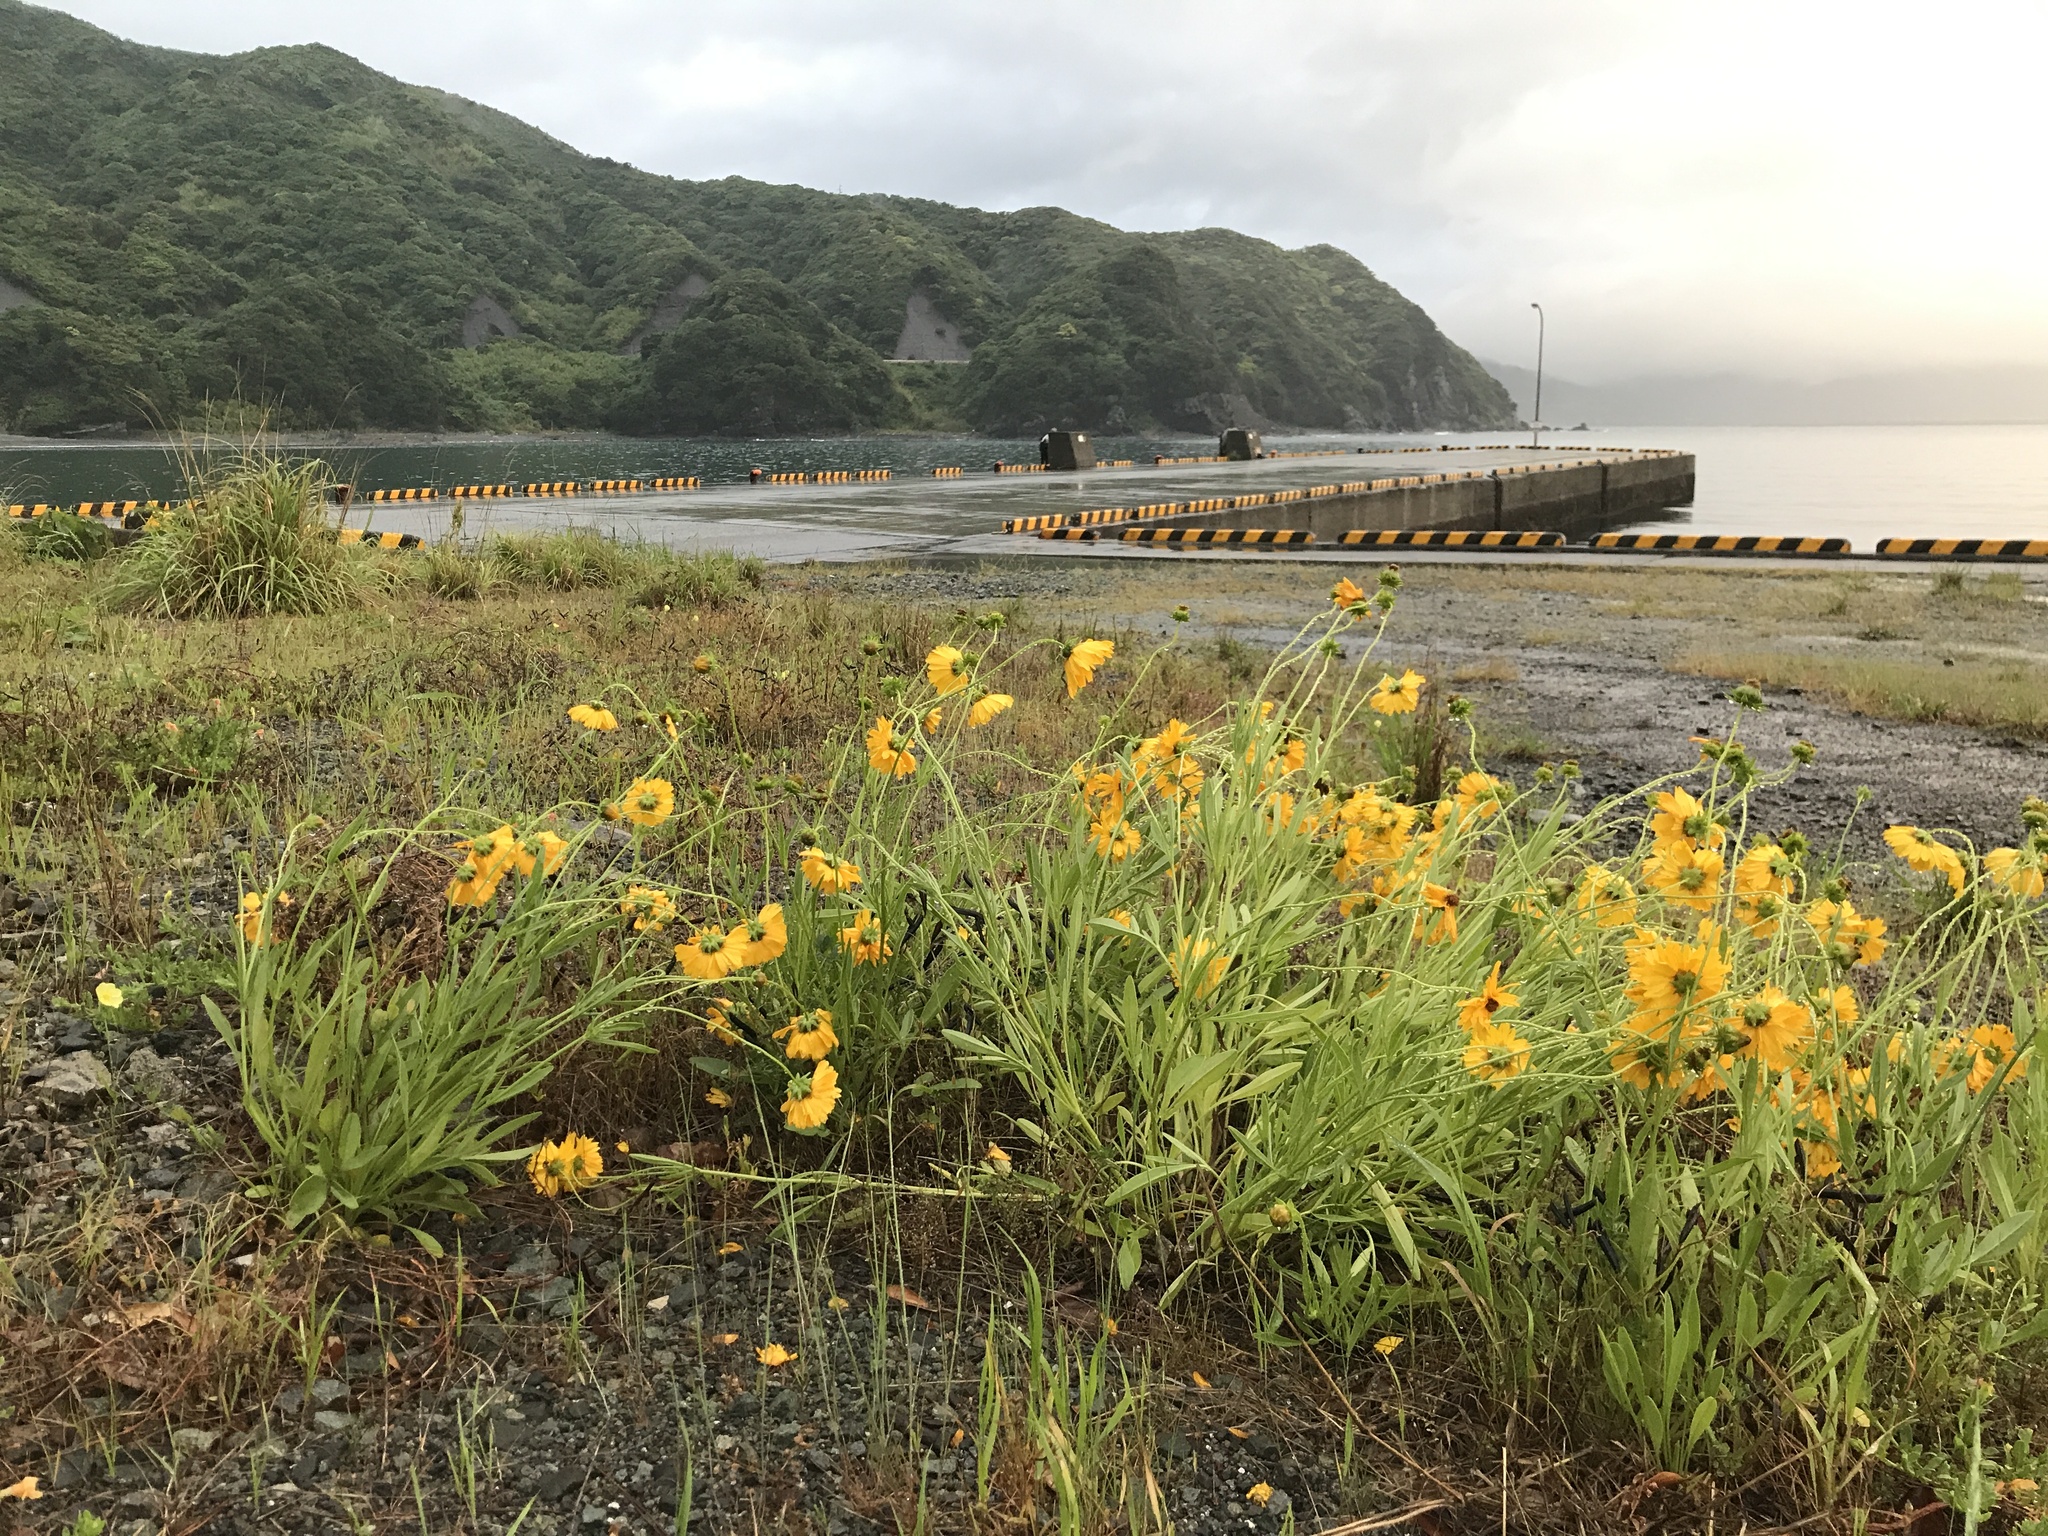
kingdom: Plantae
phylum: Tracheophyta
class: Magnoliopsida
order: Asterales
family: Asteraceae
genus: Coreopsis
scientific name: Coreopsis lanceolata
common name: Garden coreopsis
